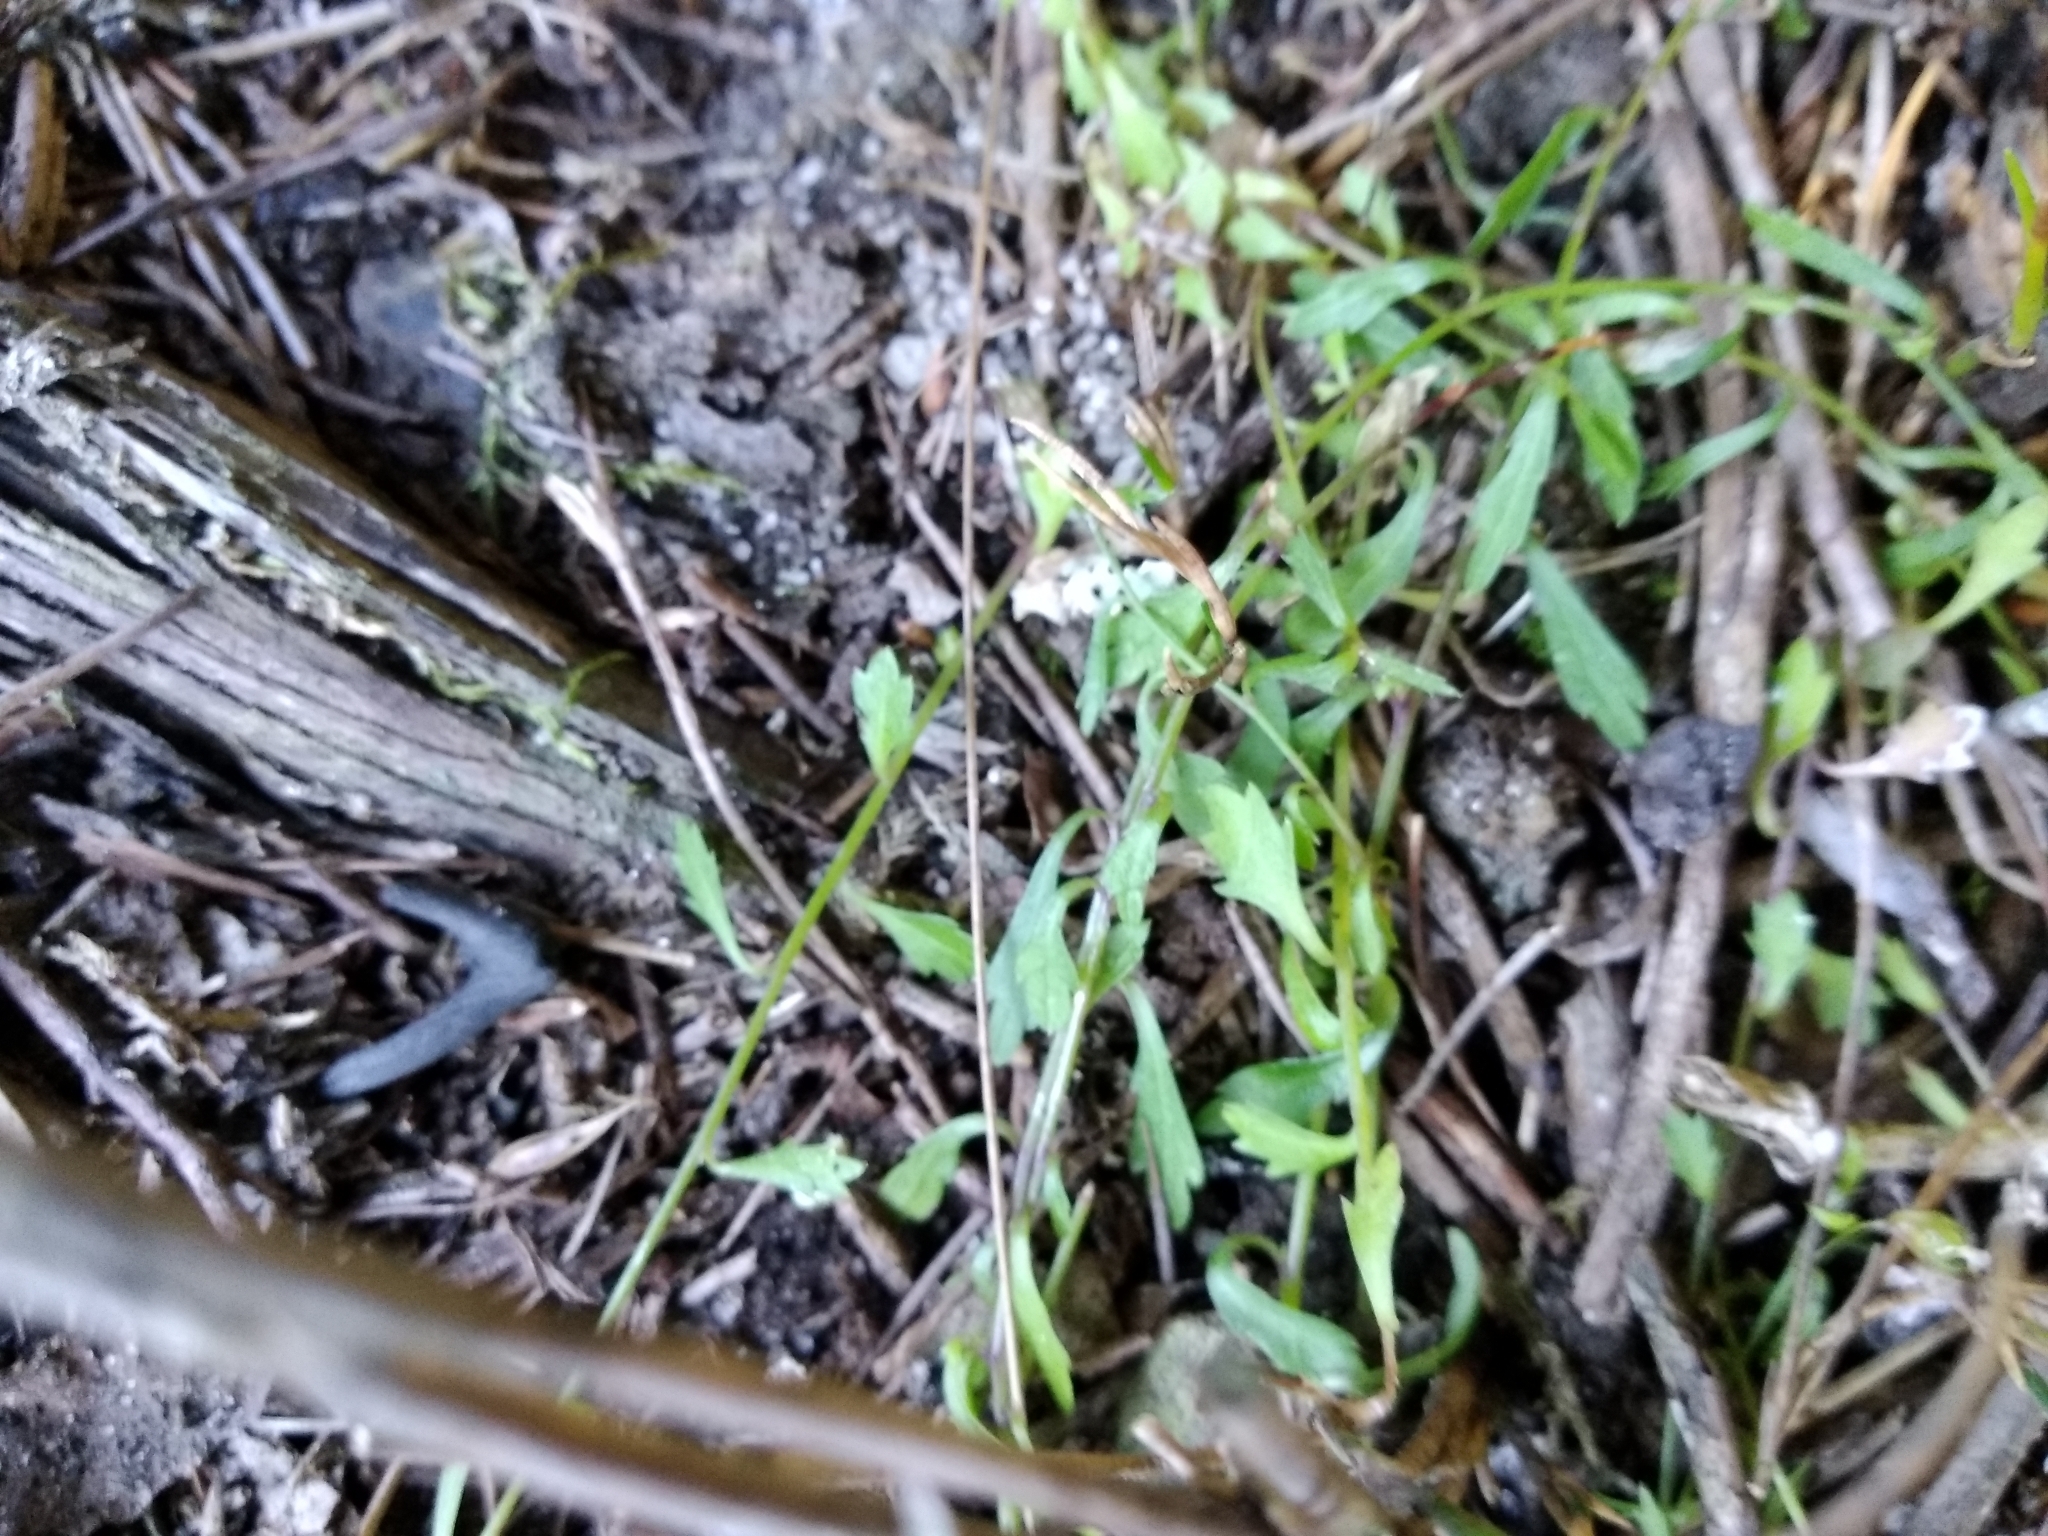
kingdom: Plantae
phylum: Tracheophyta
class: Magnoliopsida
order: Asterales
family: Campanulaceae
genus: Lobelia
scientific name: Lobelia eckloniana
